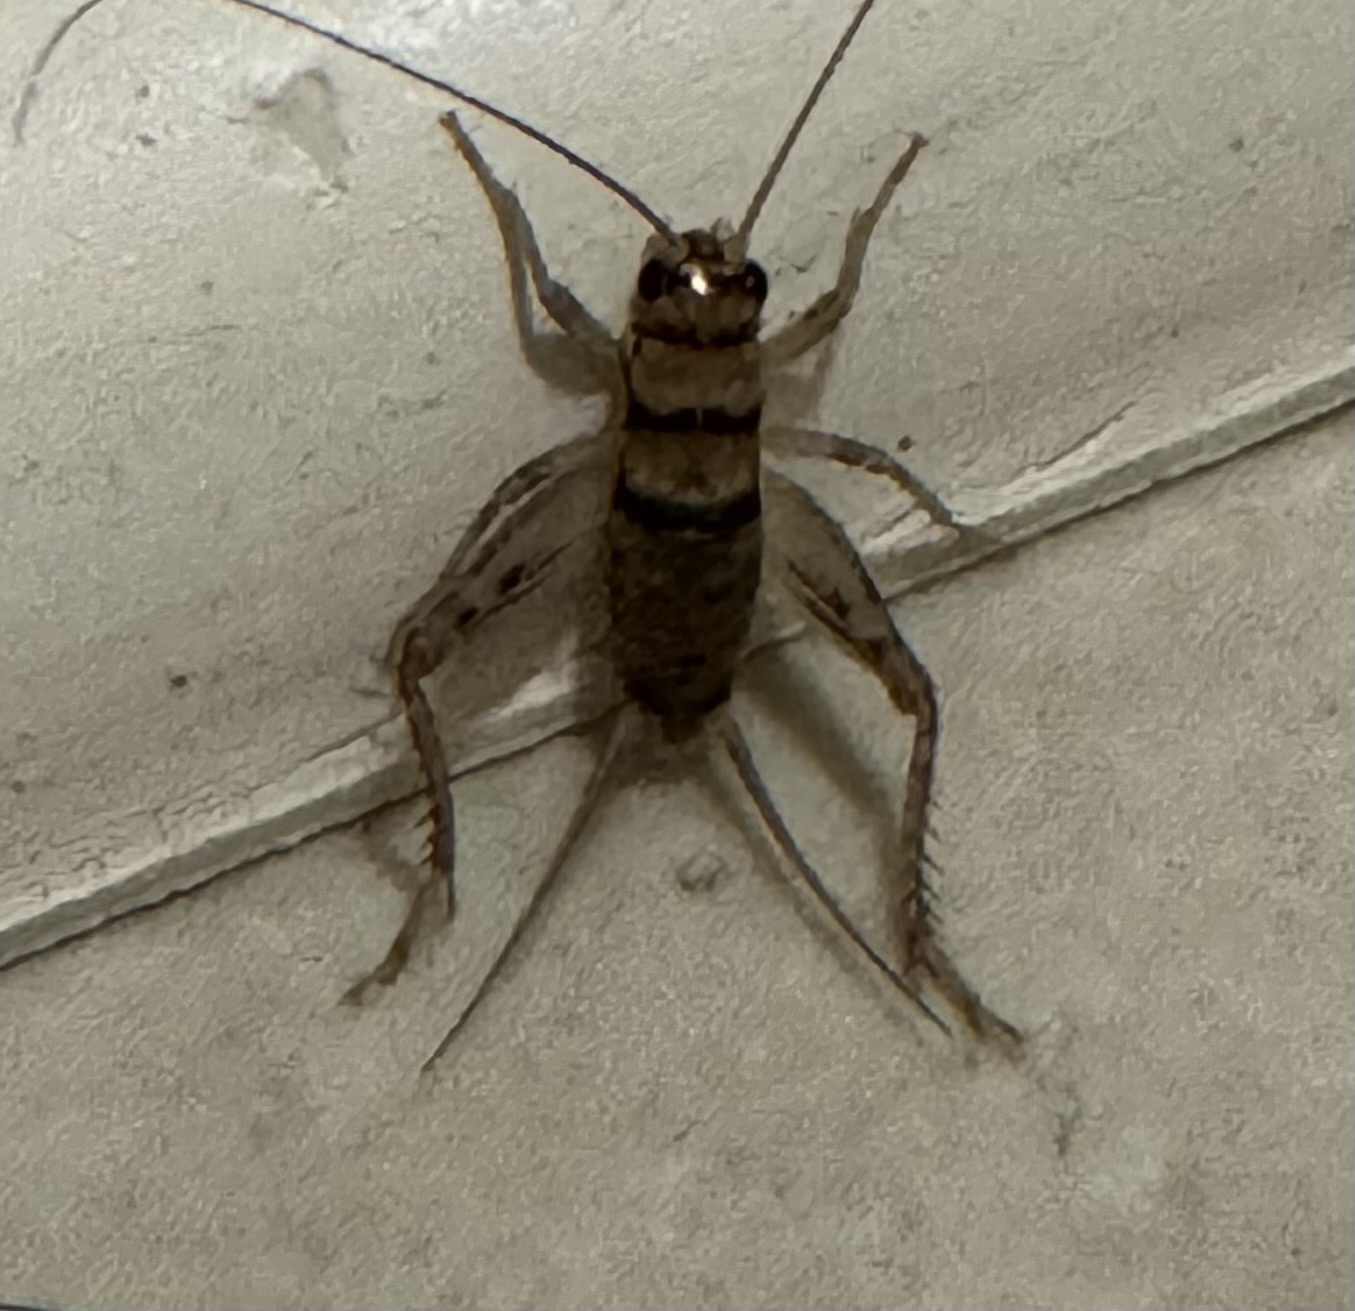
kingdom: Animalia
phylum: Arthropoda
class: Insecta
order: Orthoptera
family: Gryllidae
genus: Gryllodes
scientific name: Gryllodes sigillatus
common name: Tropical house cricket
